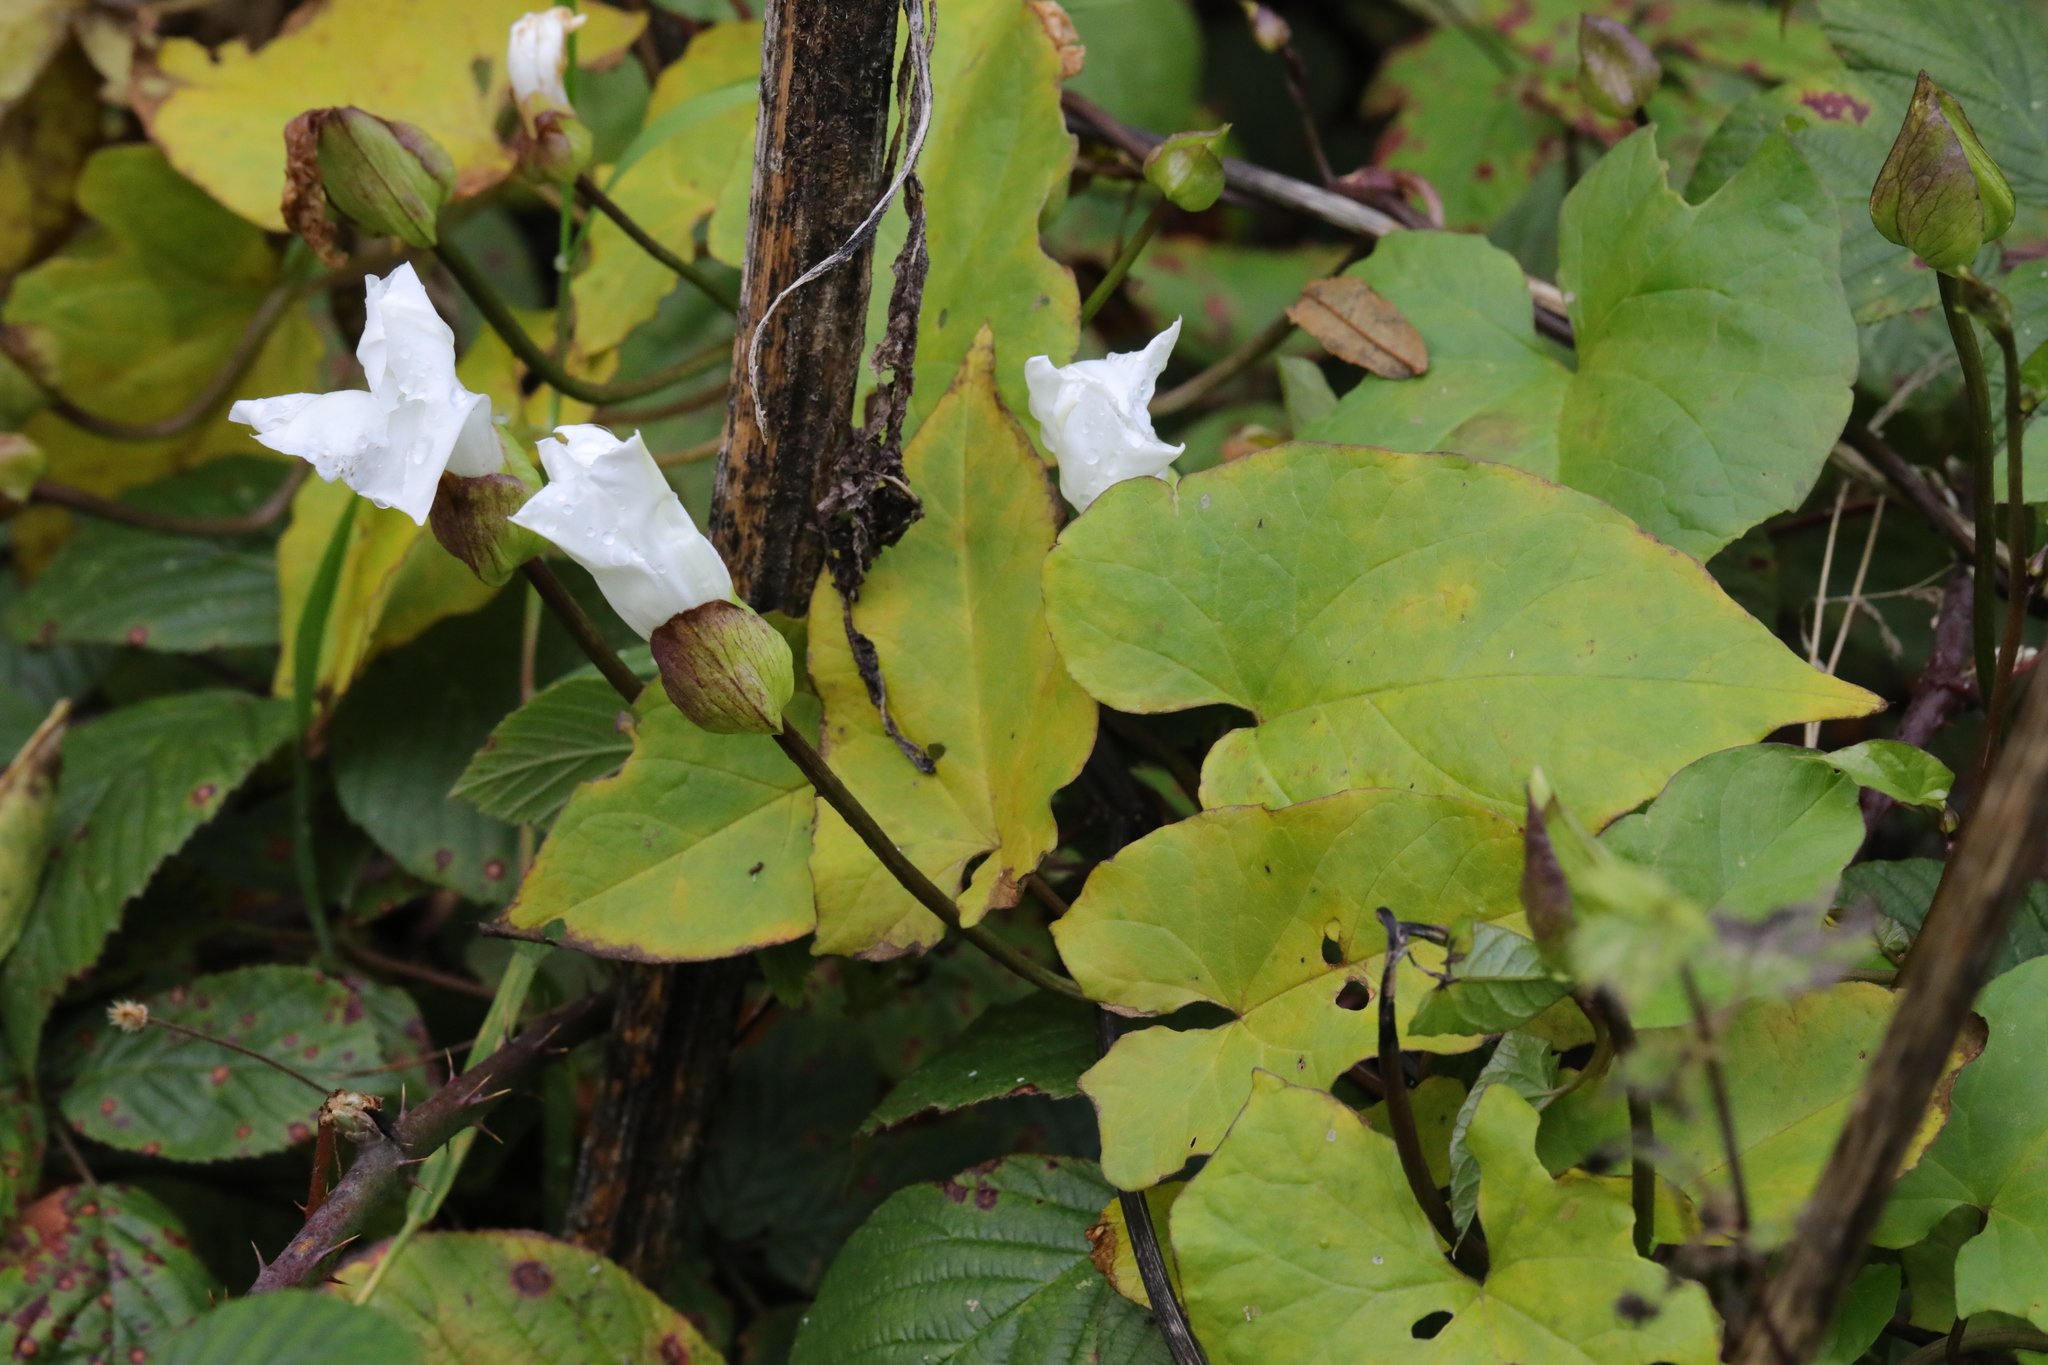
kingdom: Plantae
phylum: Tracheophyta
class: Magnoliopsida
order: Solanales
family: Convolvulaceae
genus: Calystegia
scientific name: Calystegia silvatica
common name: Large bindweed
